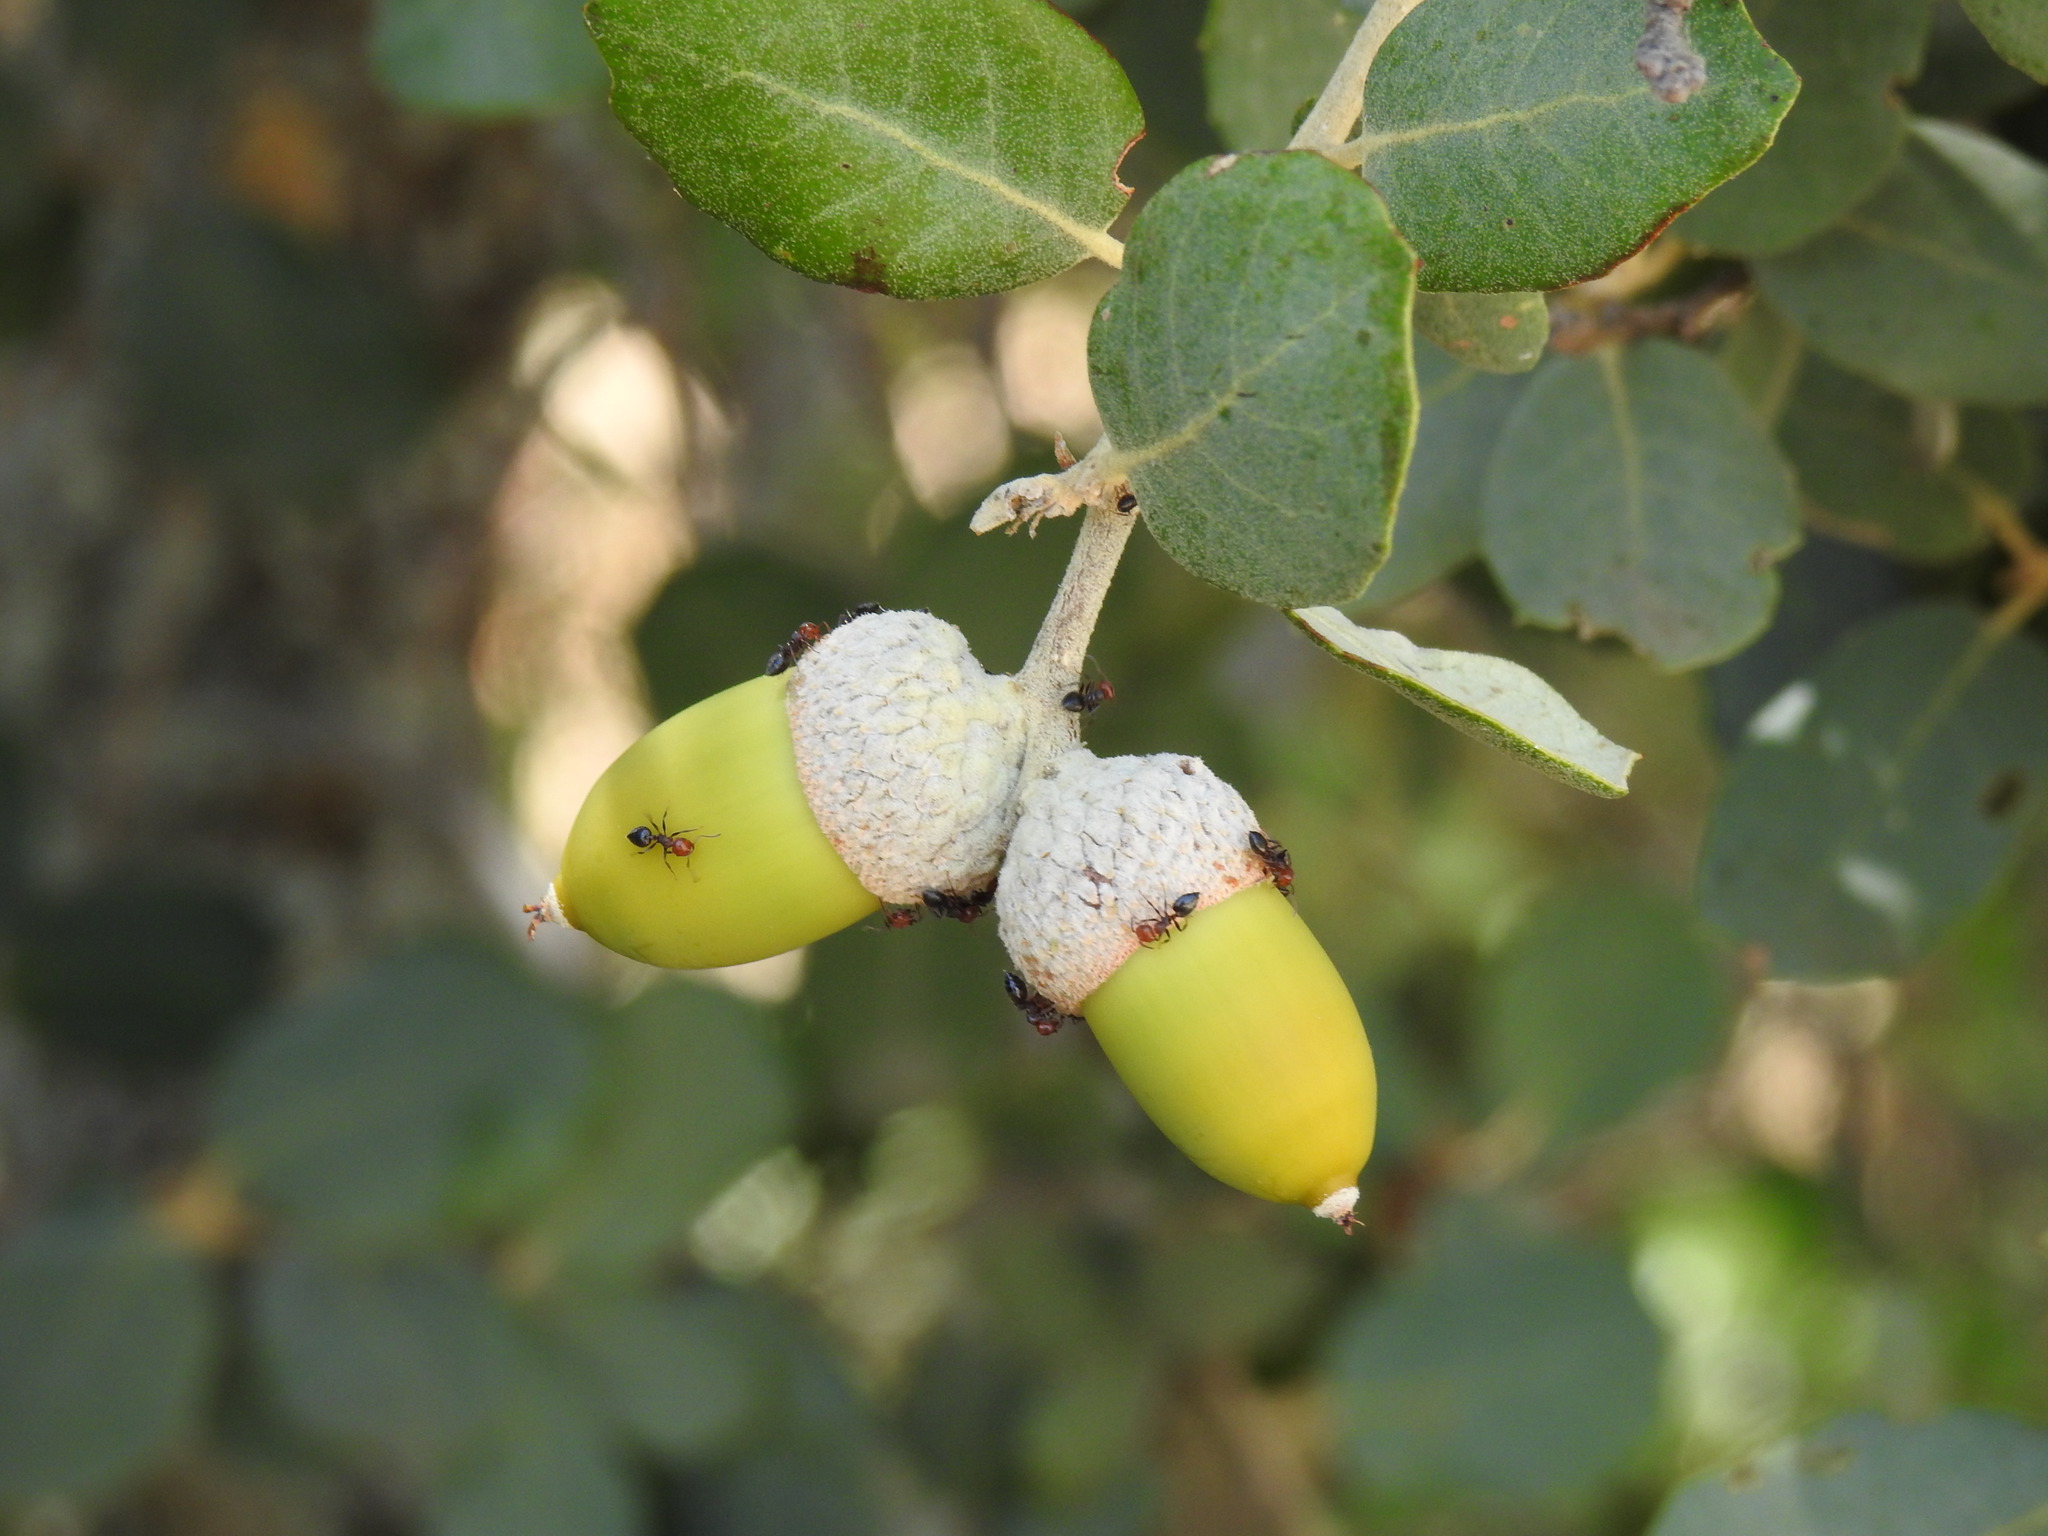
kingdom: Plantae
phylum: Tracheophyta
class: Magnoliopsida
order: Fagales
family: Fagaceae
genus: Quercus
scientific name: Quercus rotundifolia
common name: Holm oak
